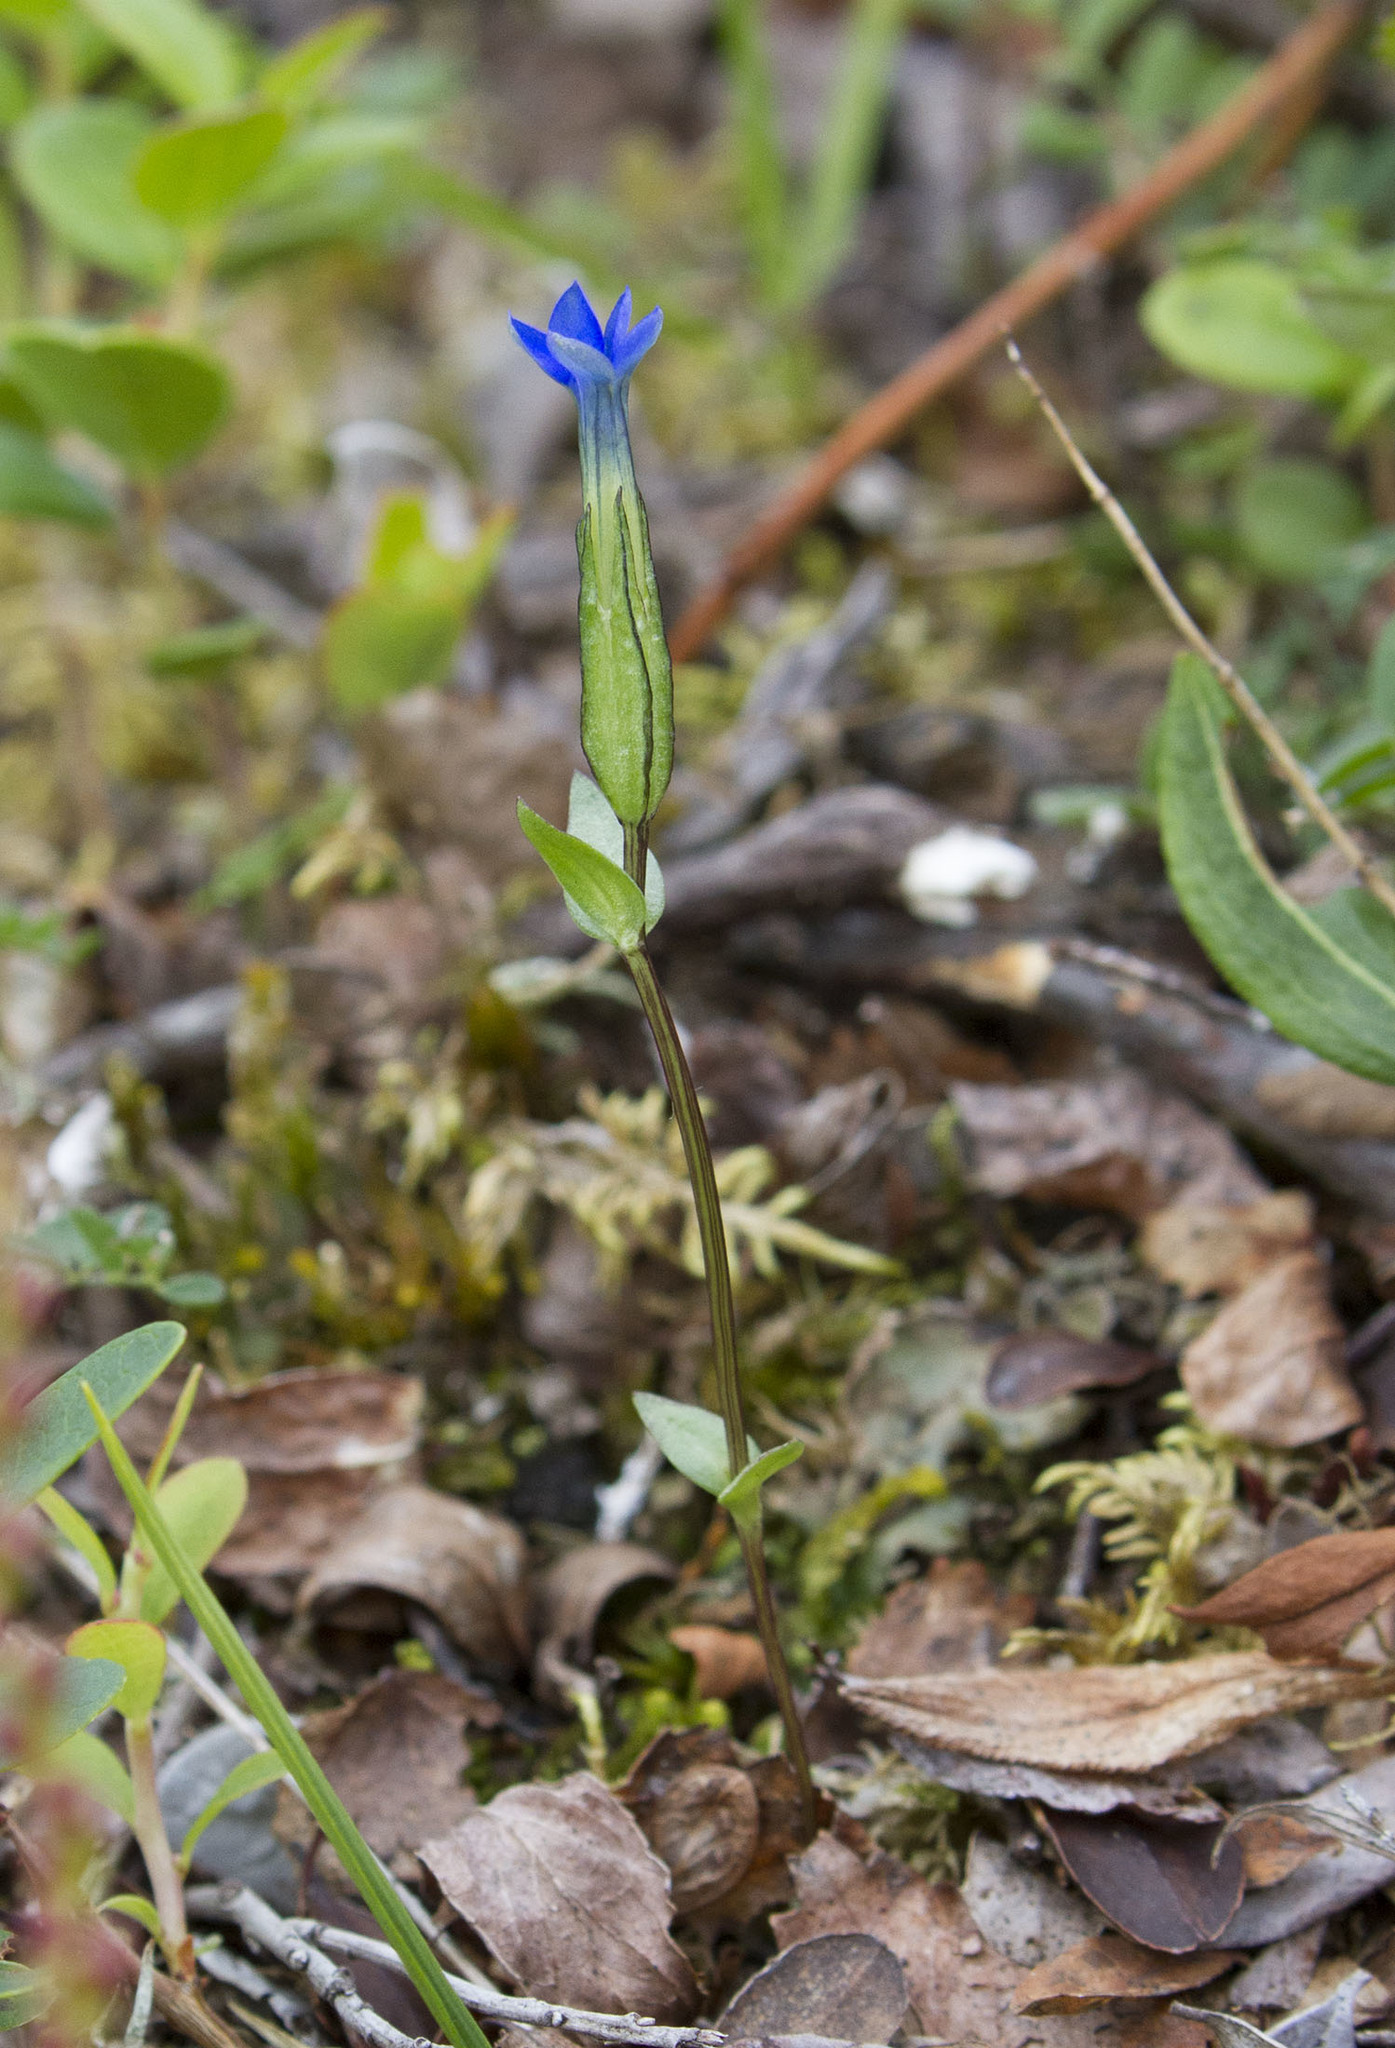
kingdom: Plantae
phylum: Tracheophyta
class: Magnoliopsida
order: Gentianales
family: Gentianaceae
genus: Gentiana
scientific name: Gentiana nivalis
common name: Alpine gentian
